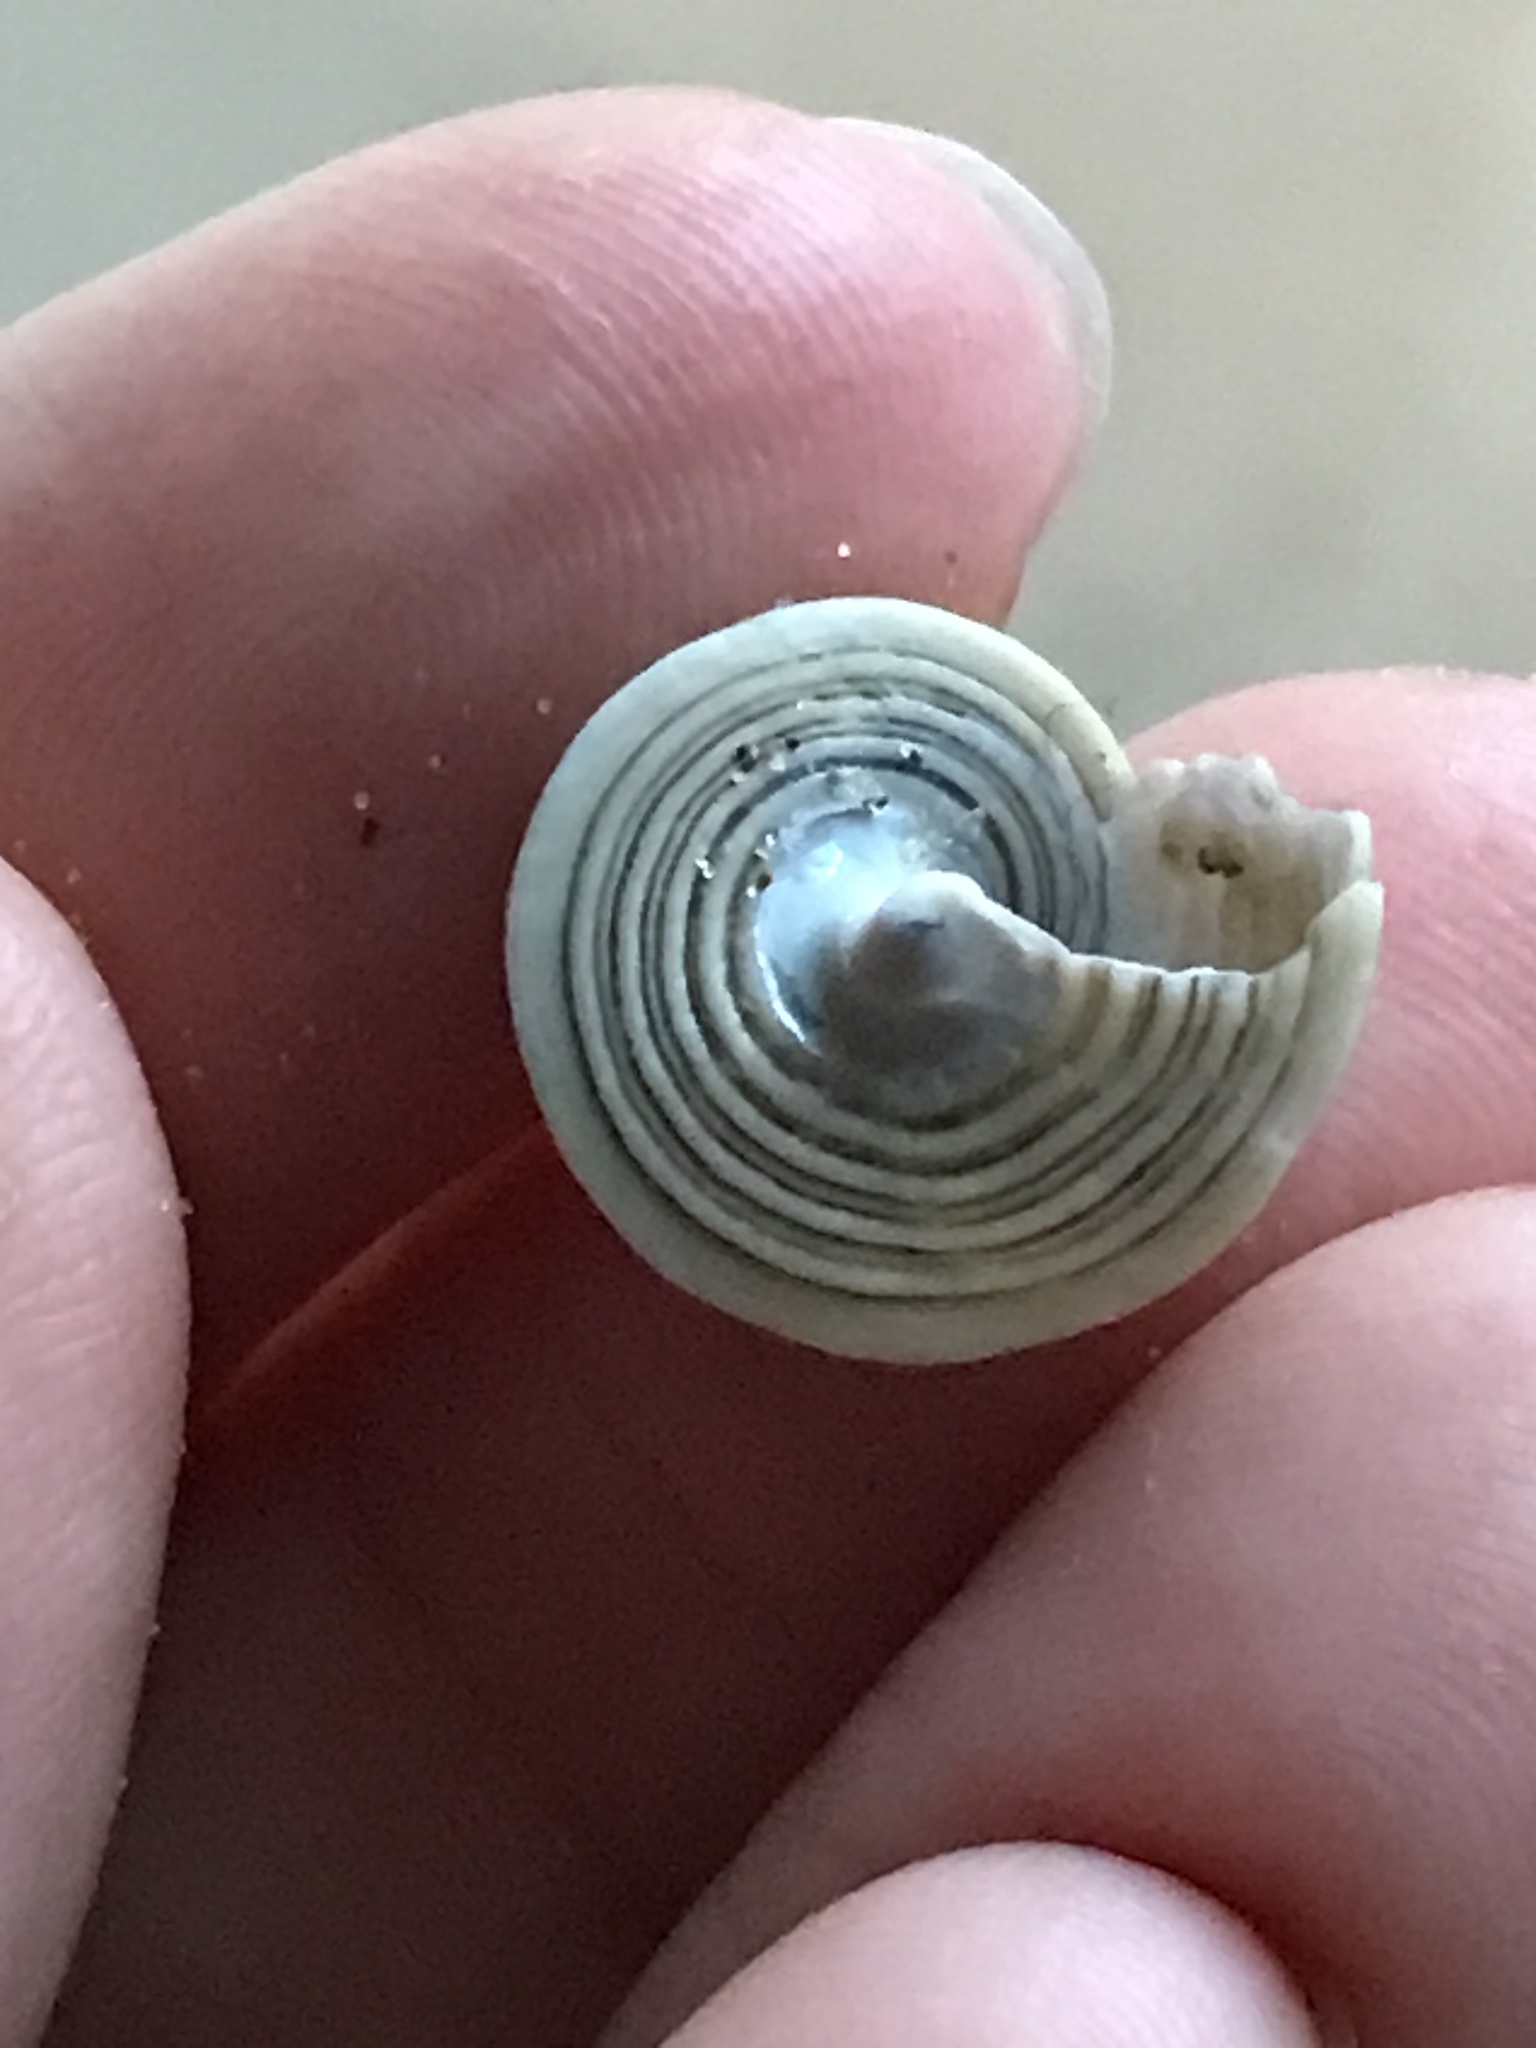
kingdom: Animalia
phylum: Mollusca
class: Gastropoda
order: Trochida
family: Calliostomatidae
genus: Calliostoma
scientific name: Calliostoma canaliculatum
